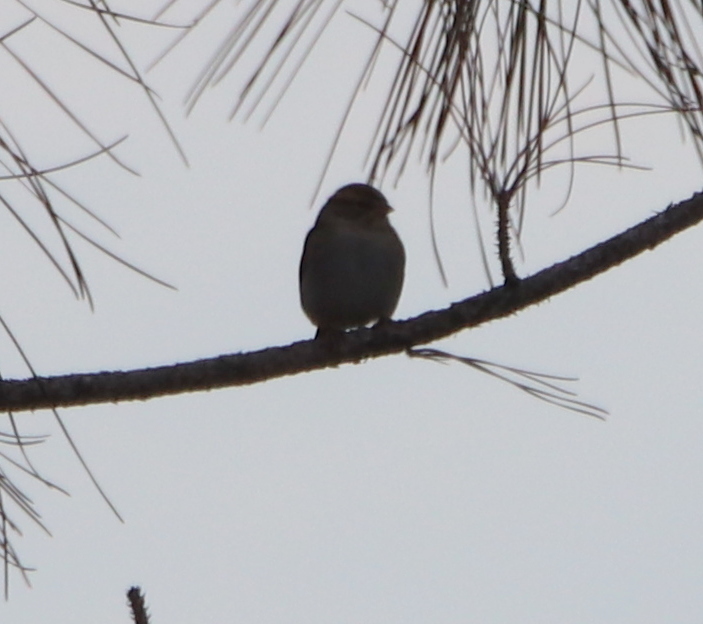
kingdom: Animalia
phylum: Chordata
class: Aves
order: Passeriformes
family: Passerellidae
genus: Spizella
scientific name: Spizella passerina
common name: Chipping sparrow
